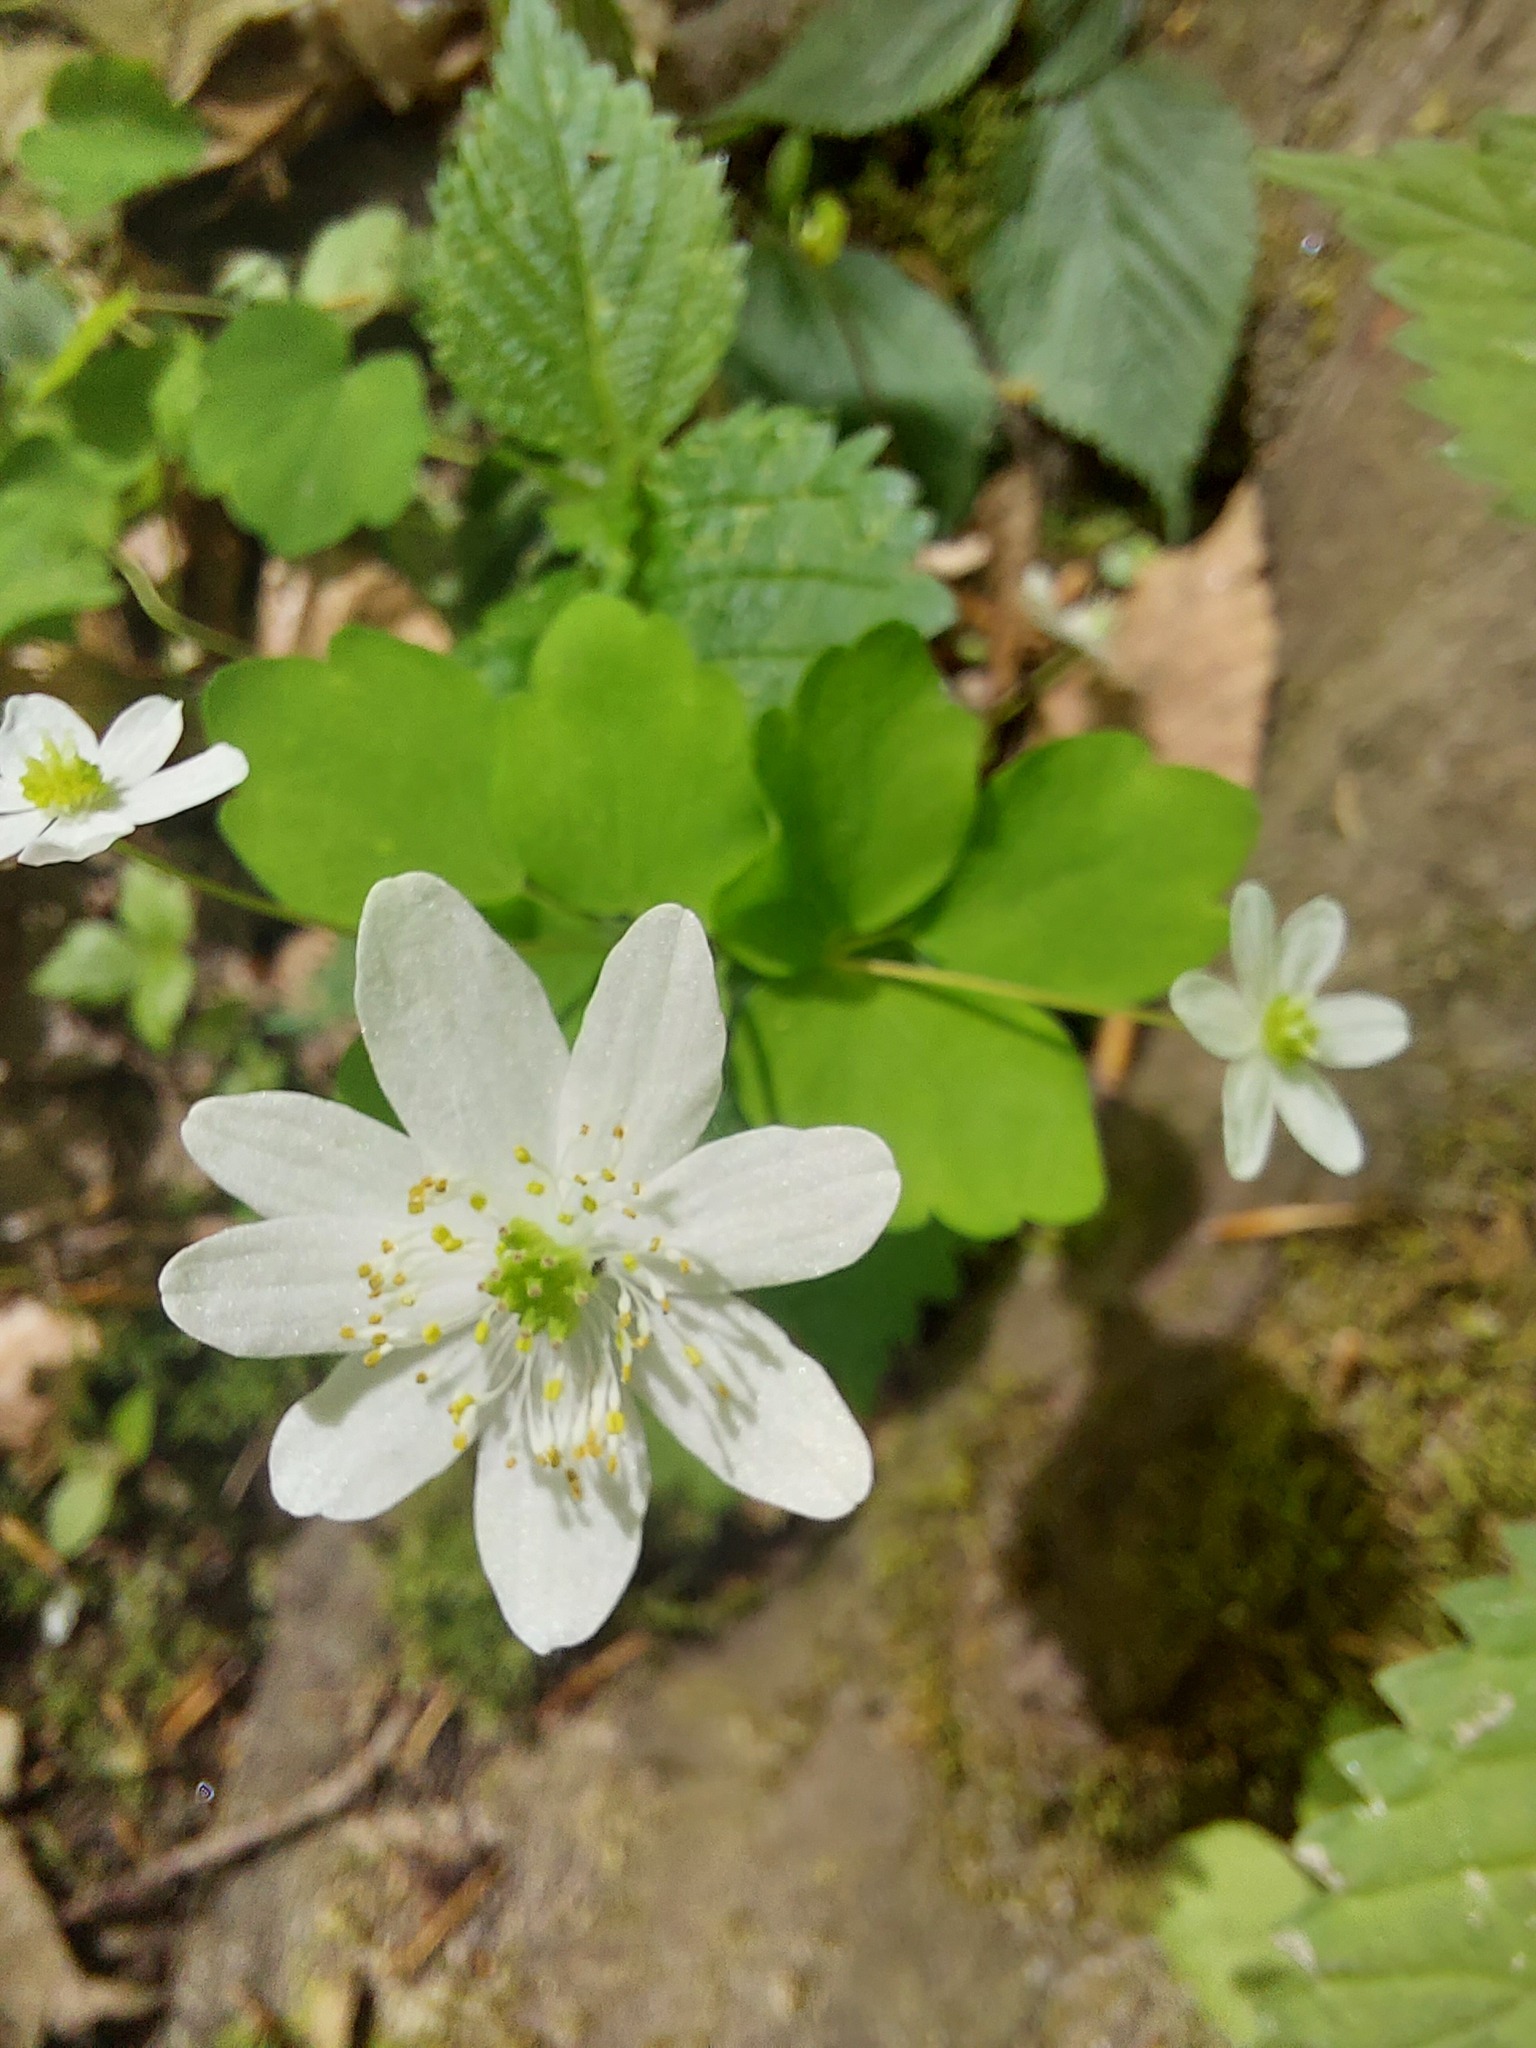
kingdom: Plantae
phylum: Tracheophyta
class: Magnoliopsida
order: Ranunculales
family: Ranunculaceae
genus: Thalictrum
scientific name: Thalictrum thalictroides
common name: Rue-anemone
